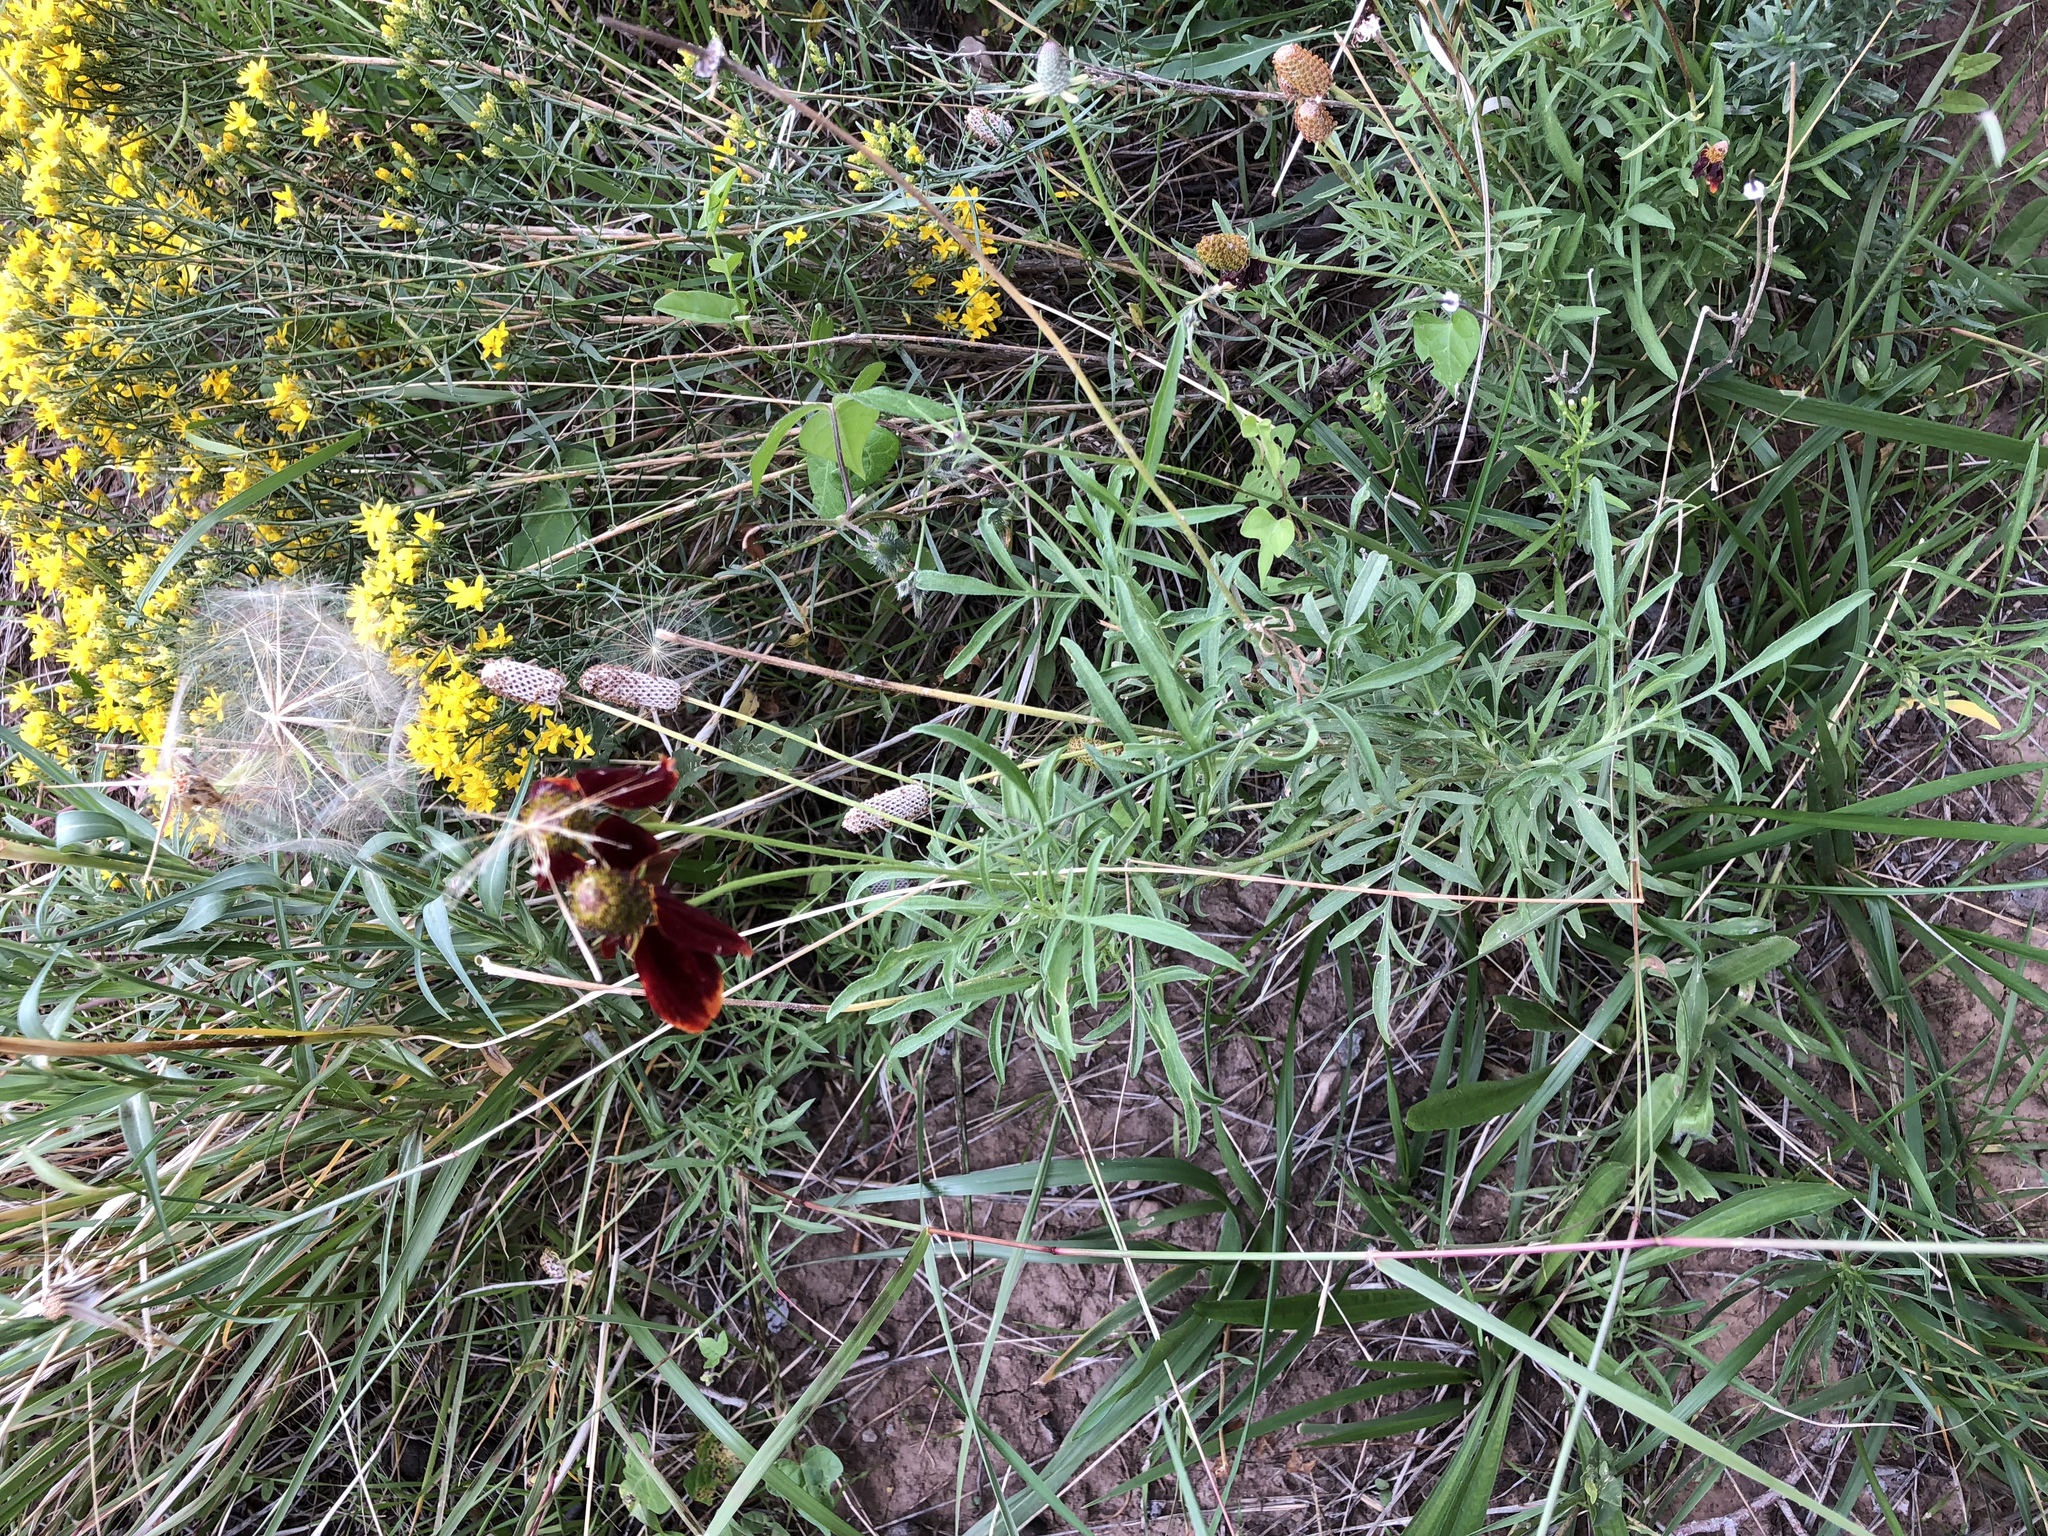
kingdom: Plantae
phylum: Tracheophyta
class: Magnoliopsida
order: Asterales
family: Asteraceae
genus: Ratibida
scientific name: Ratibida columnifera
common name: Prairie coneflower
